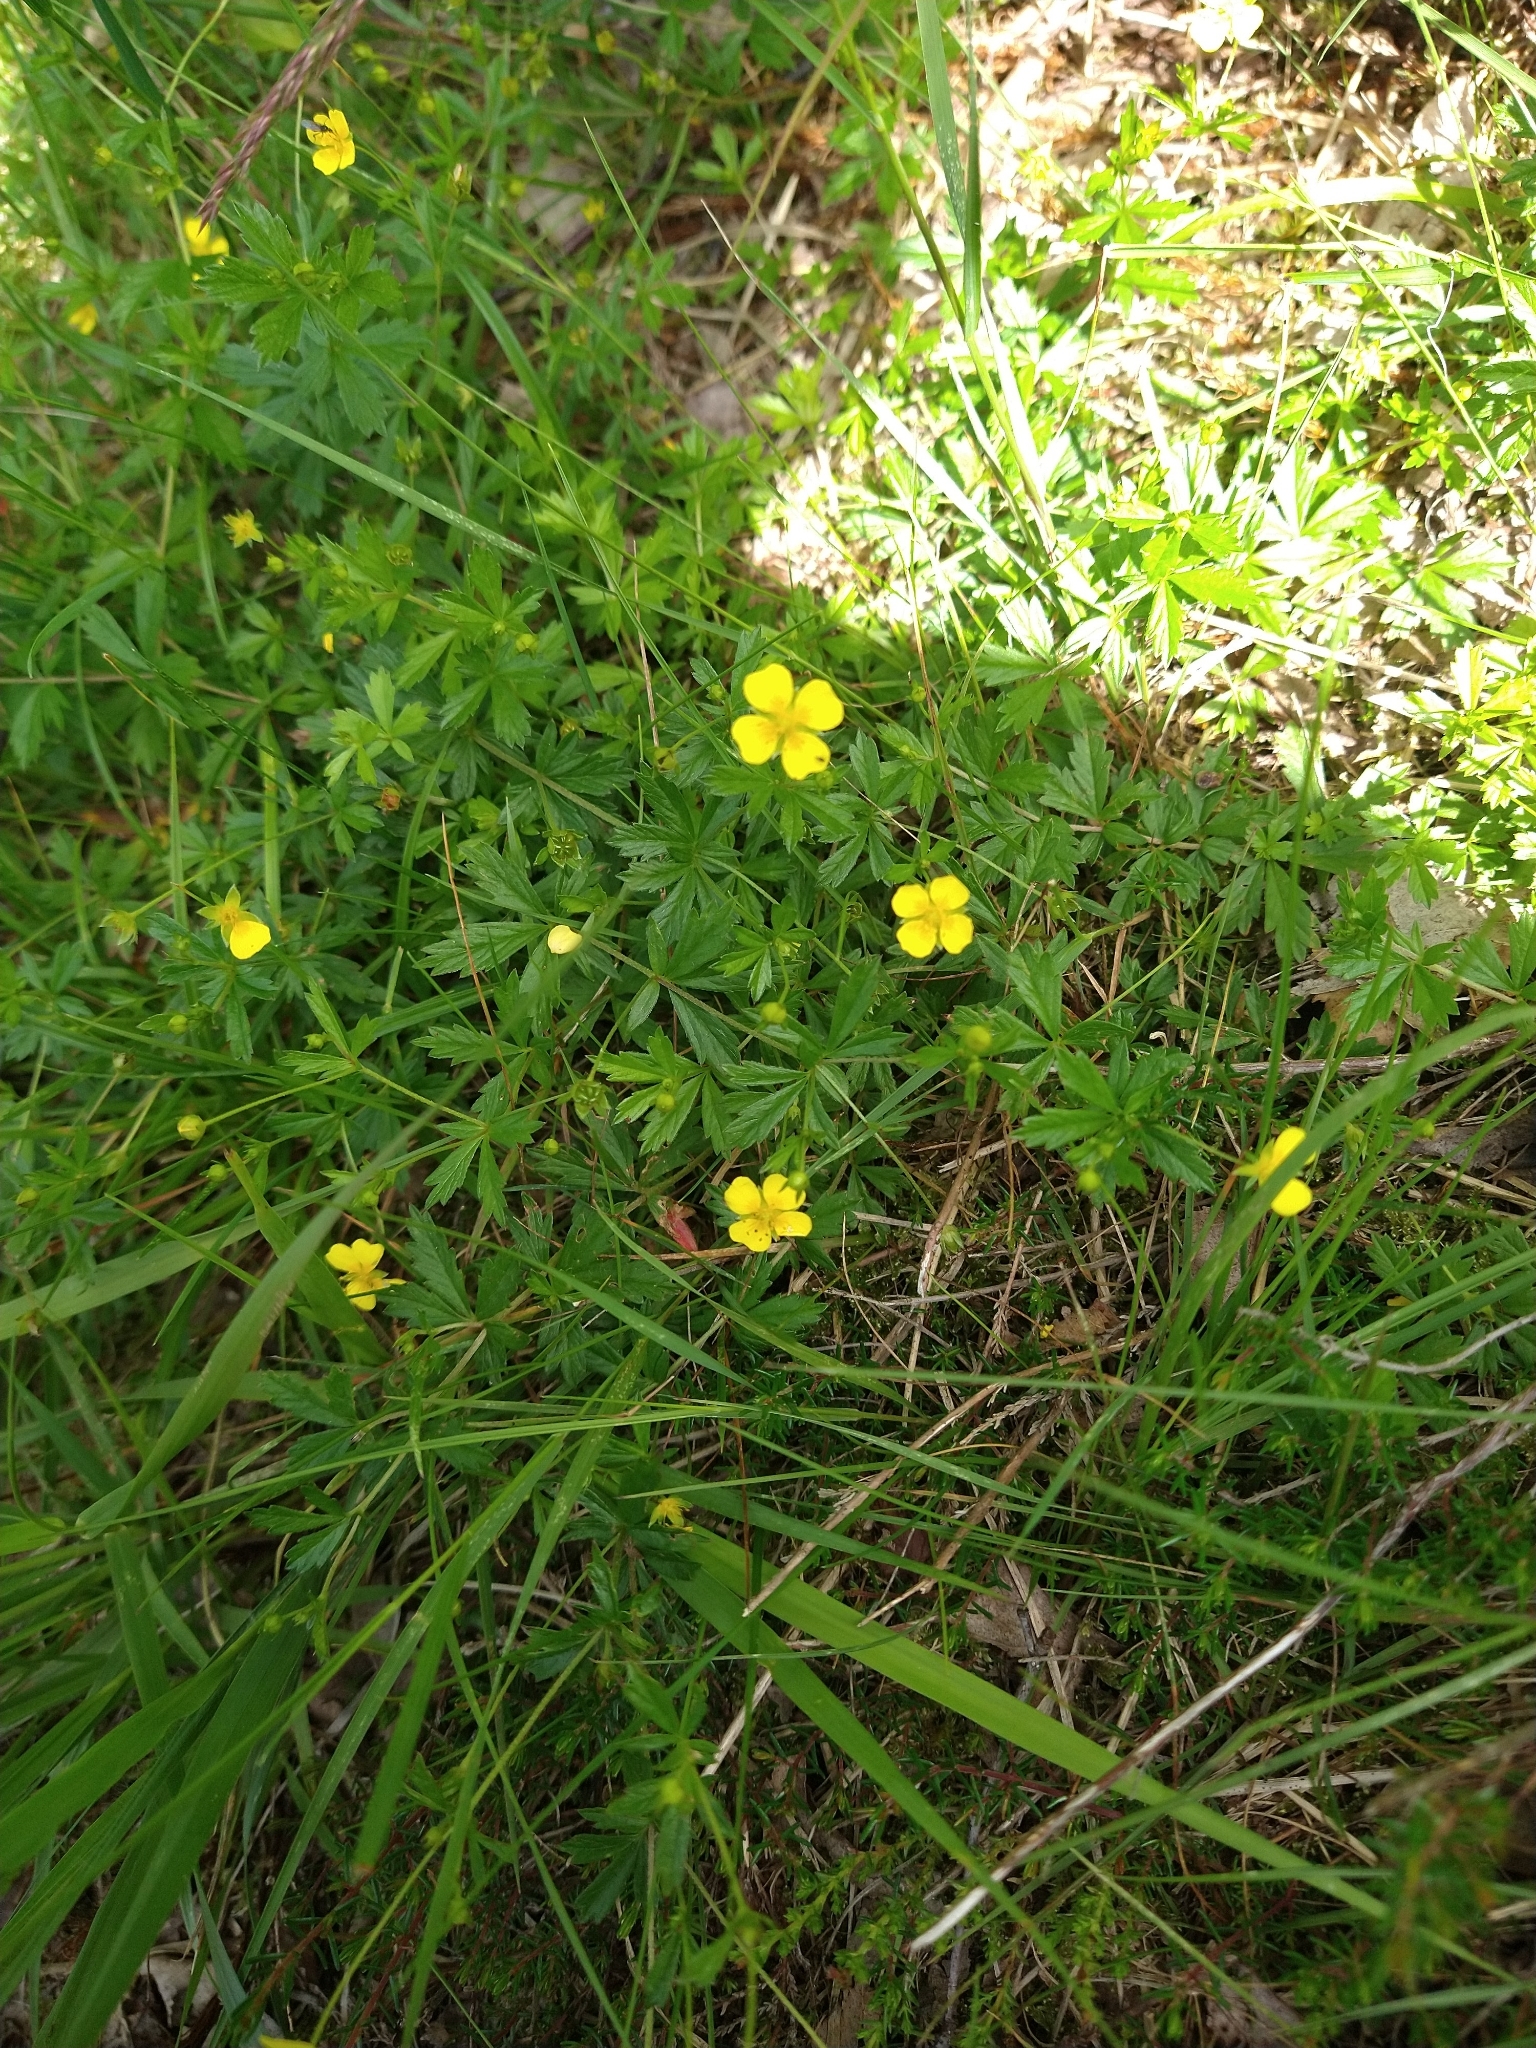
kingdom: Plantae
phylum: Tracheophyta
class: Magnoliopsida
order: Rosales
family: Rosaceae
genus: Potentilla
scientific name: Potentilla erecta
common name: Tormentil
